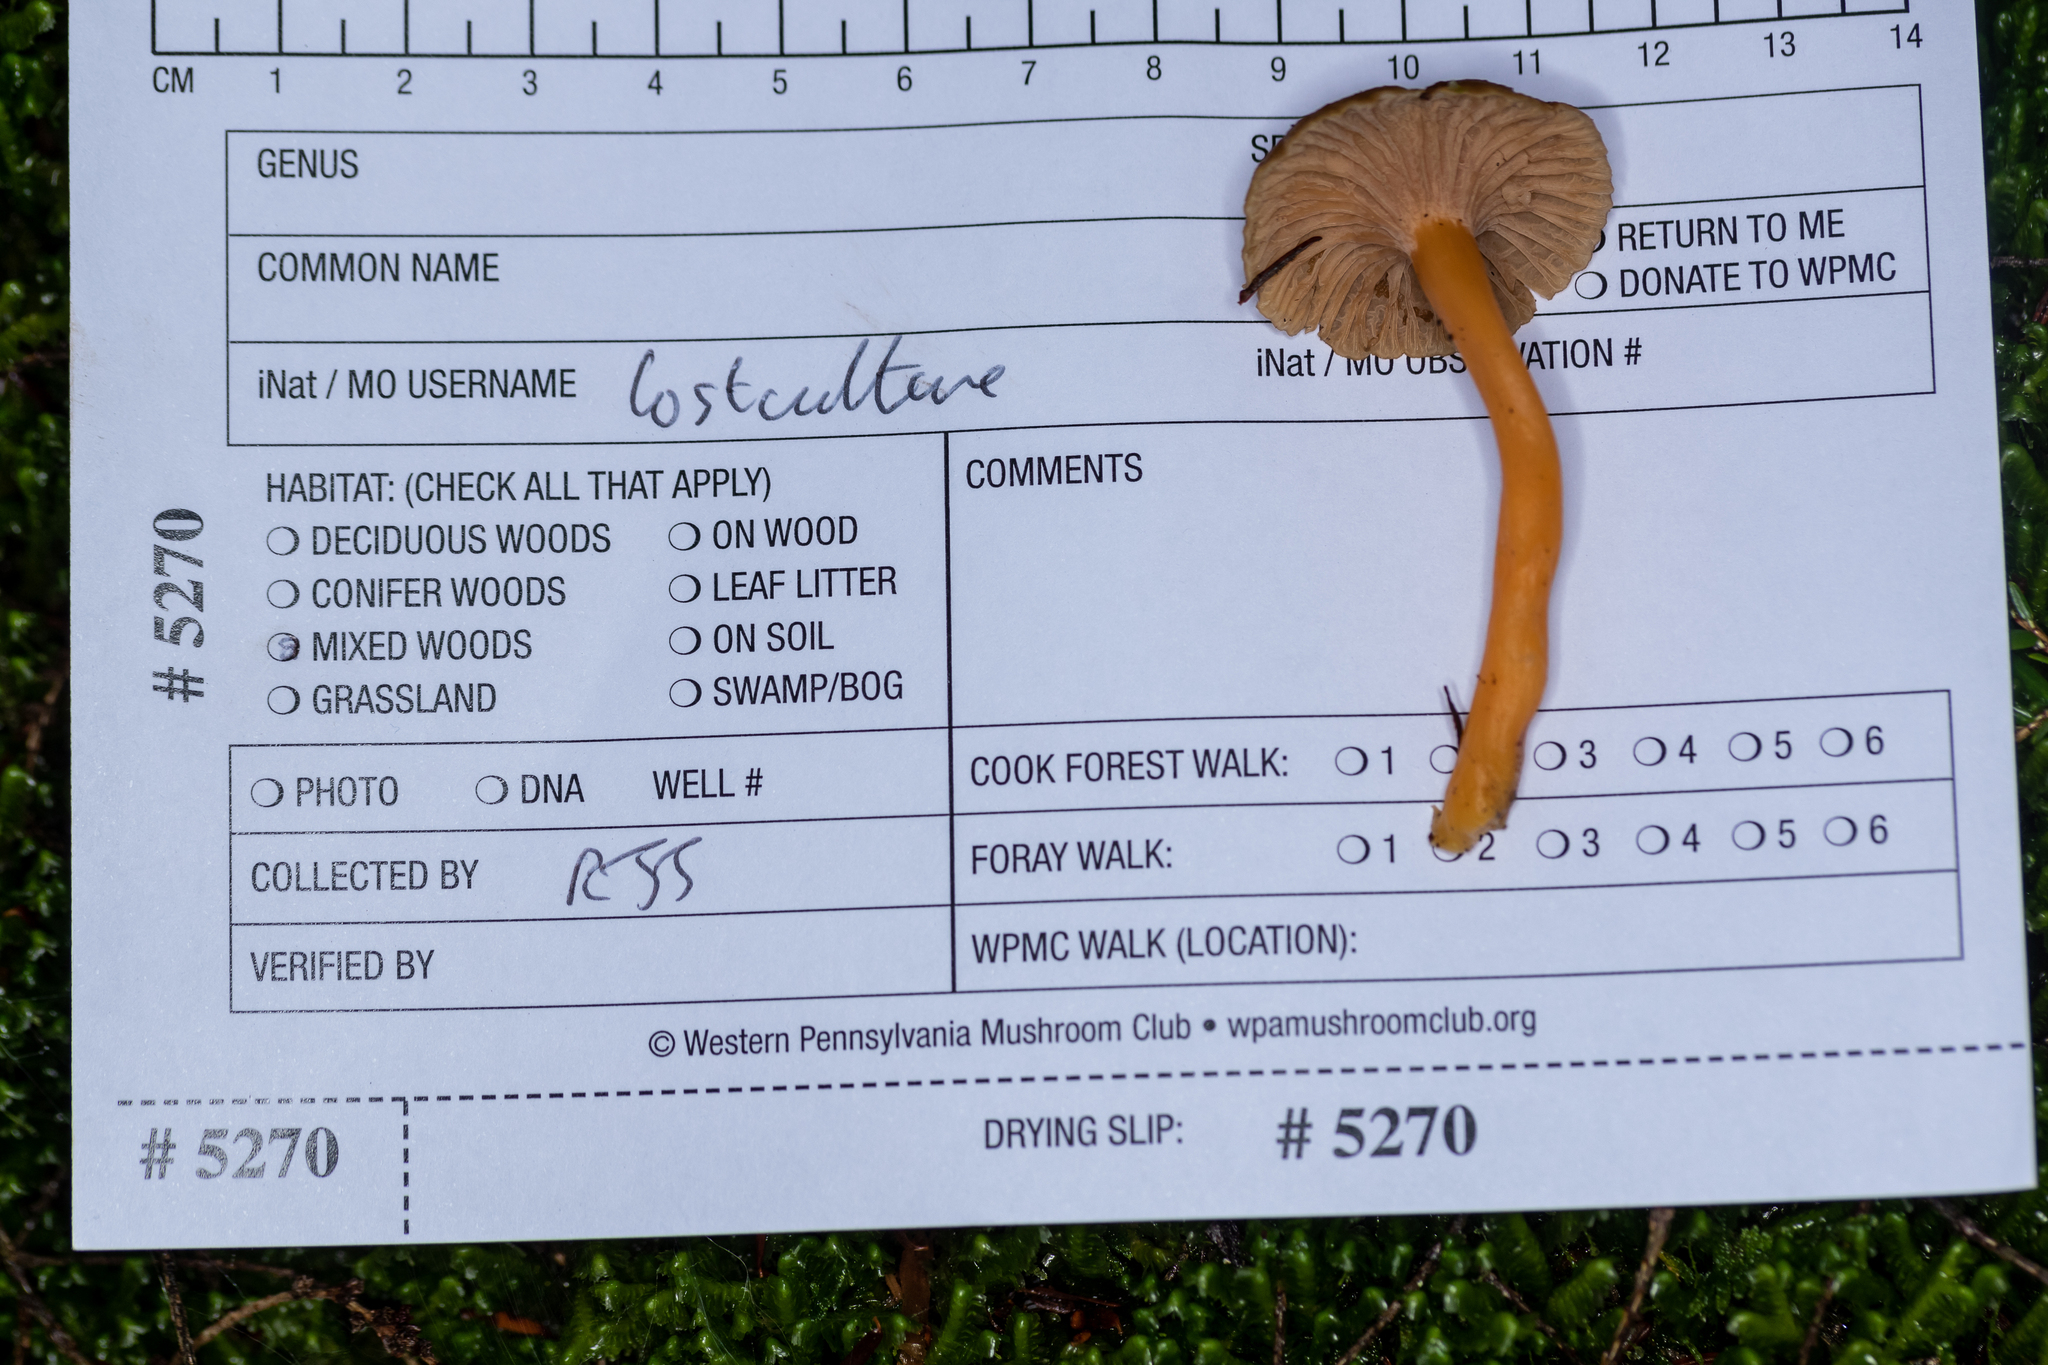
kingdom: Fungi
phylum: Basidiomycota
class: Agaricomycetes
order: Cantharellales
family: Hydnaceae
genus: Craterellus
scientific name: Craterellus tubaeformis
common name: Yellowfoot
